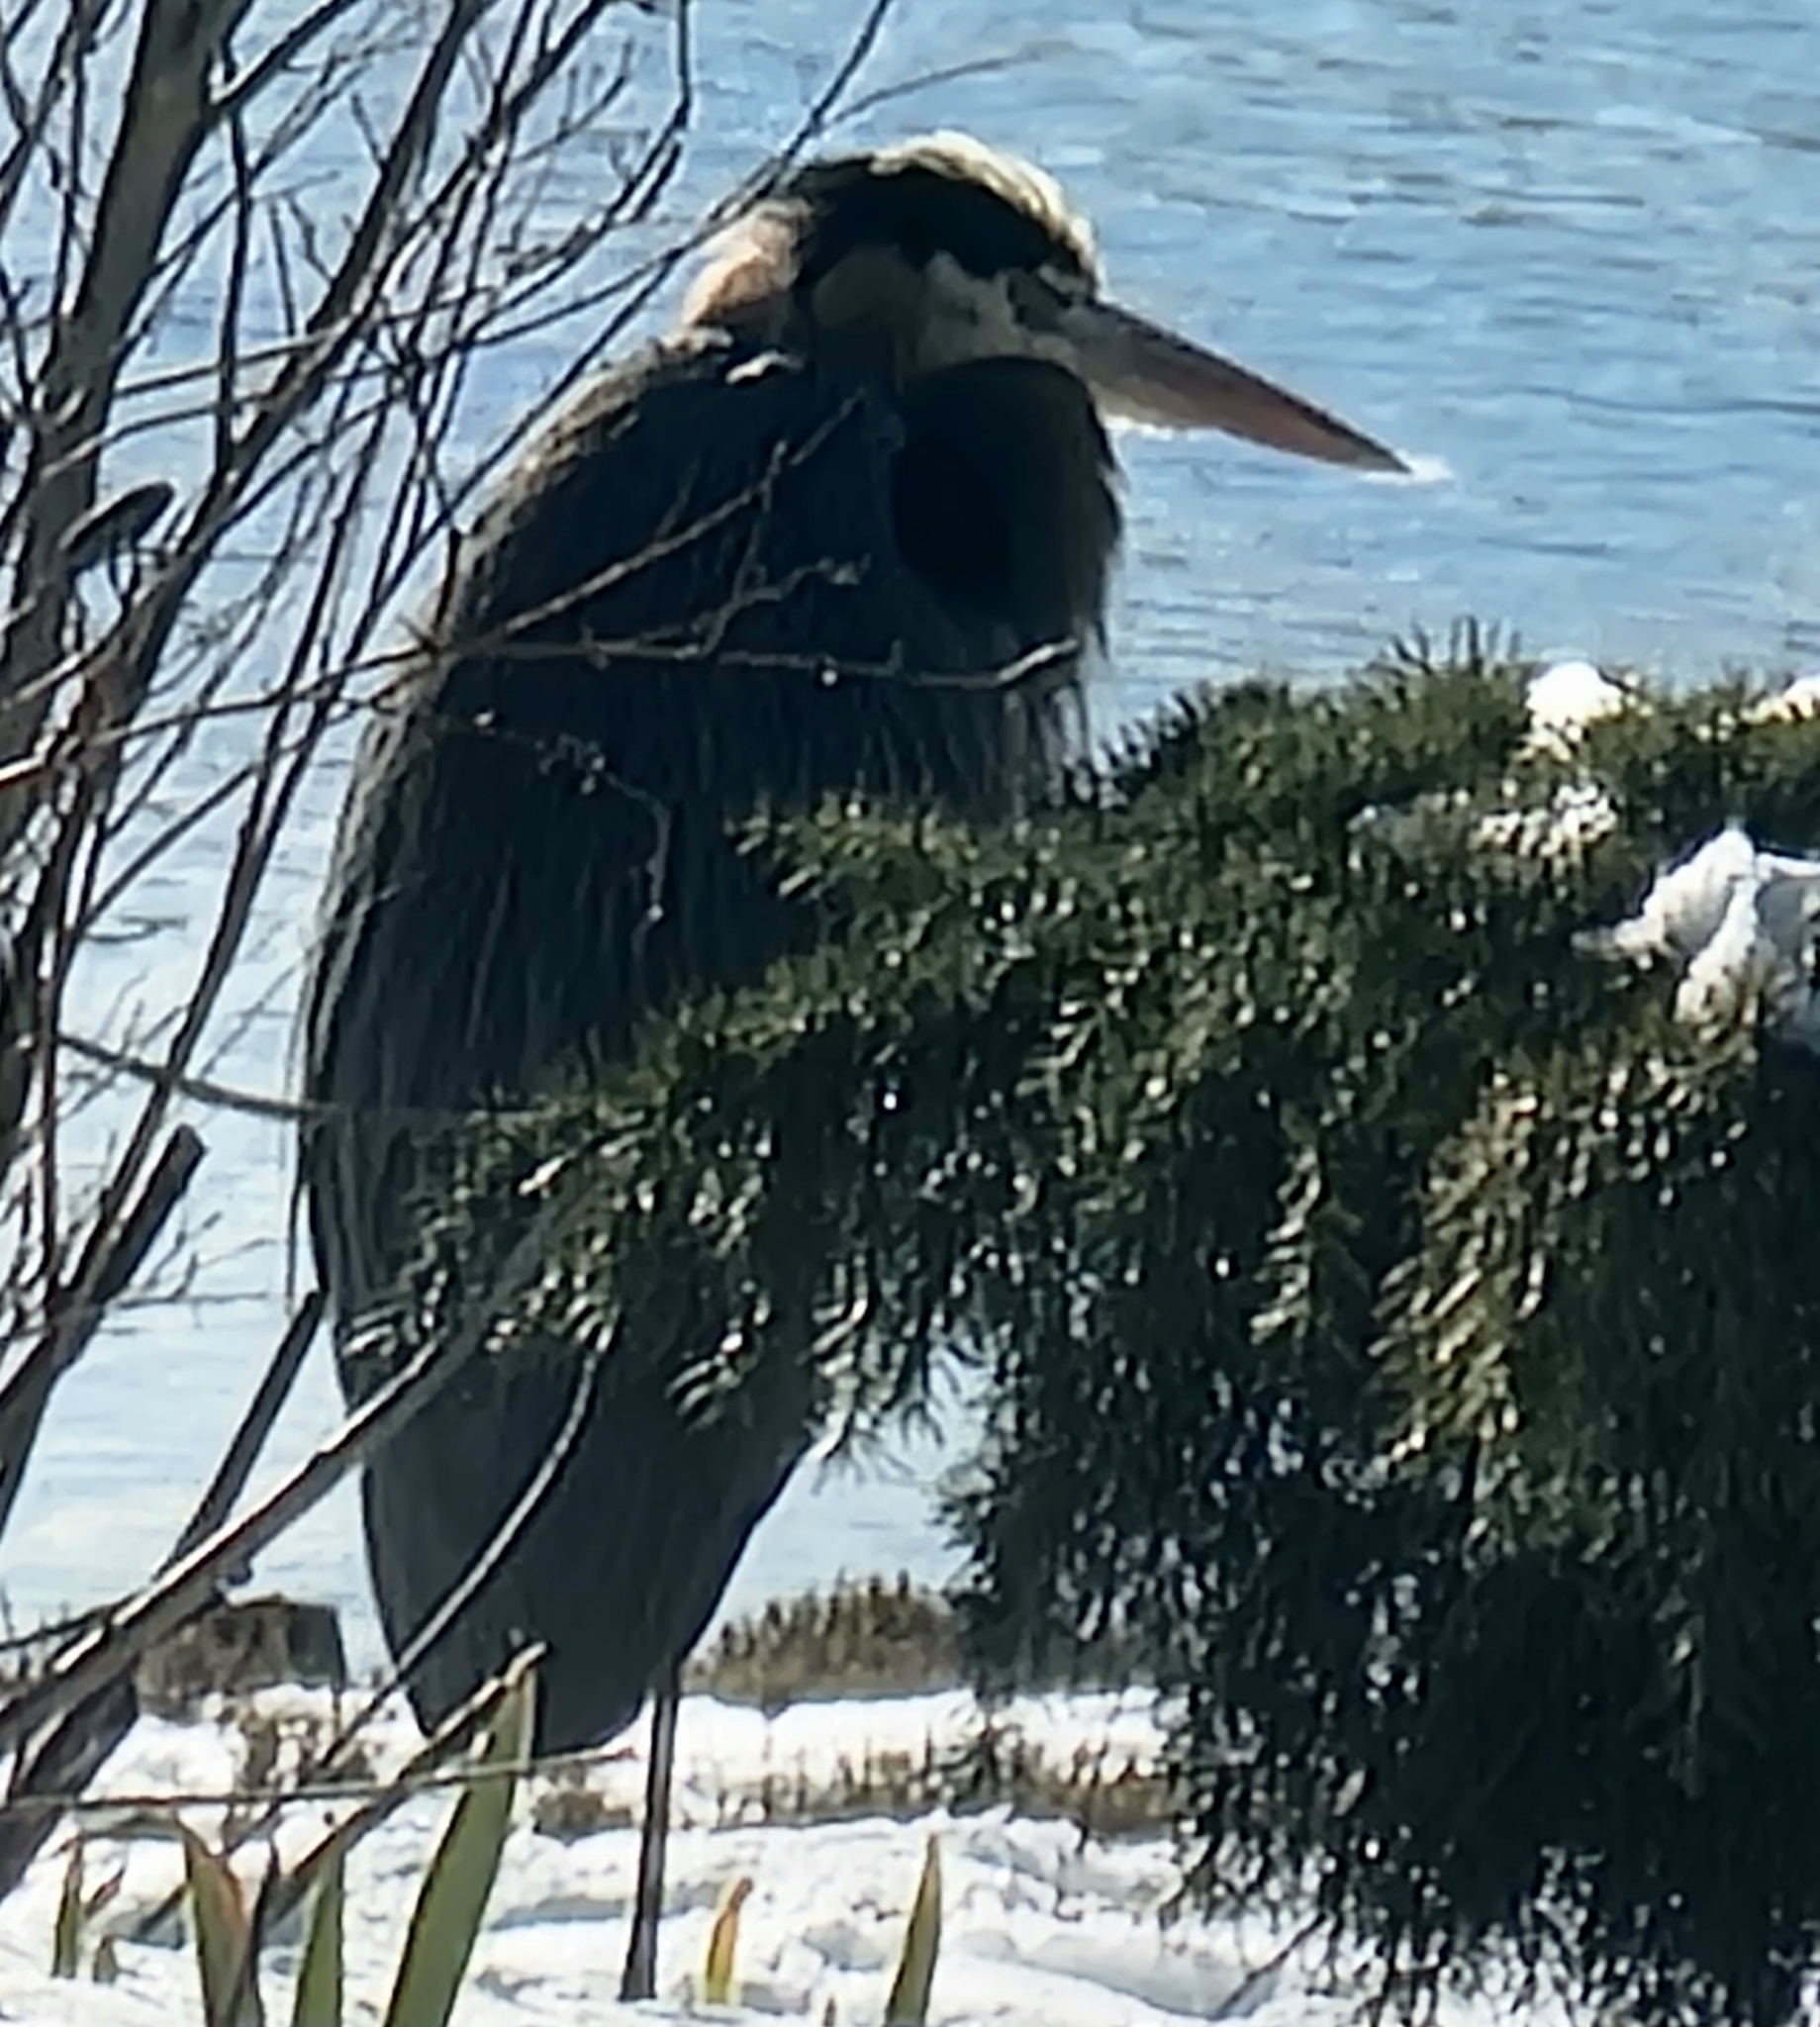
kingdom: Animalia
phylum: Chordata
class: Aves
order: Pelecaniformes
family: Ardeidae
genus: Ardea
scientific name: Ardea herodias
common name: Great blue heron
